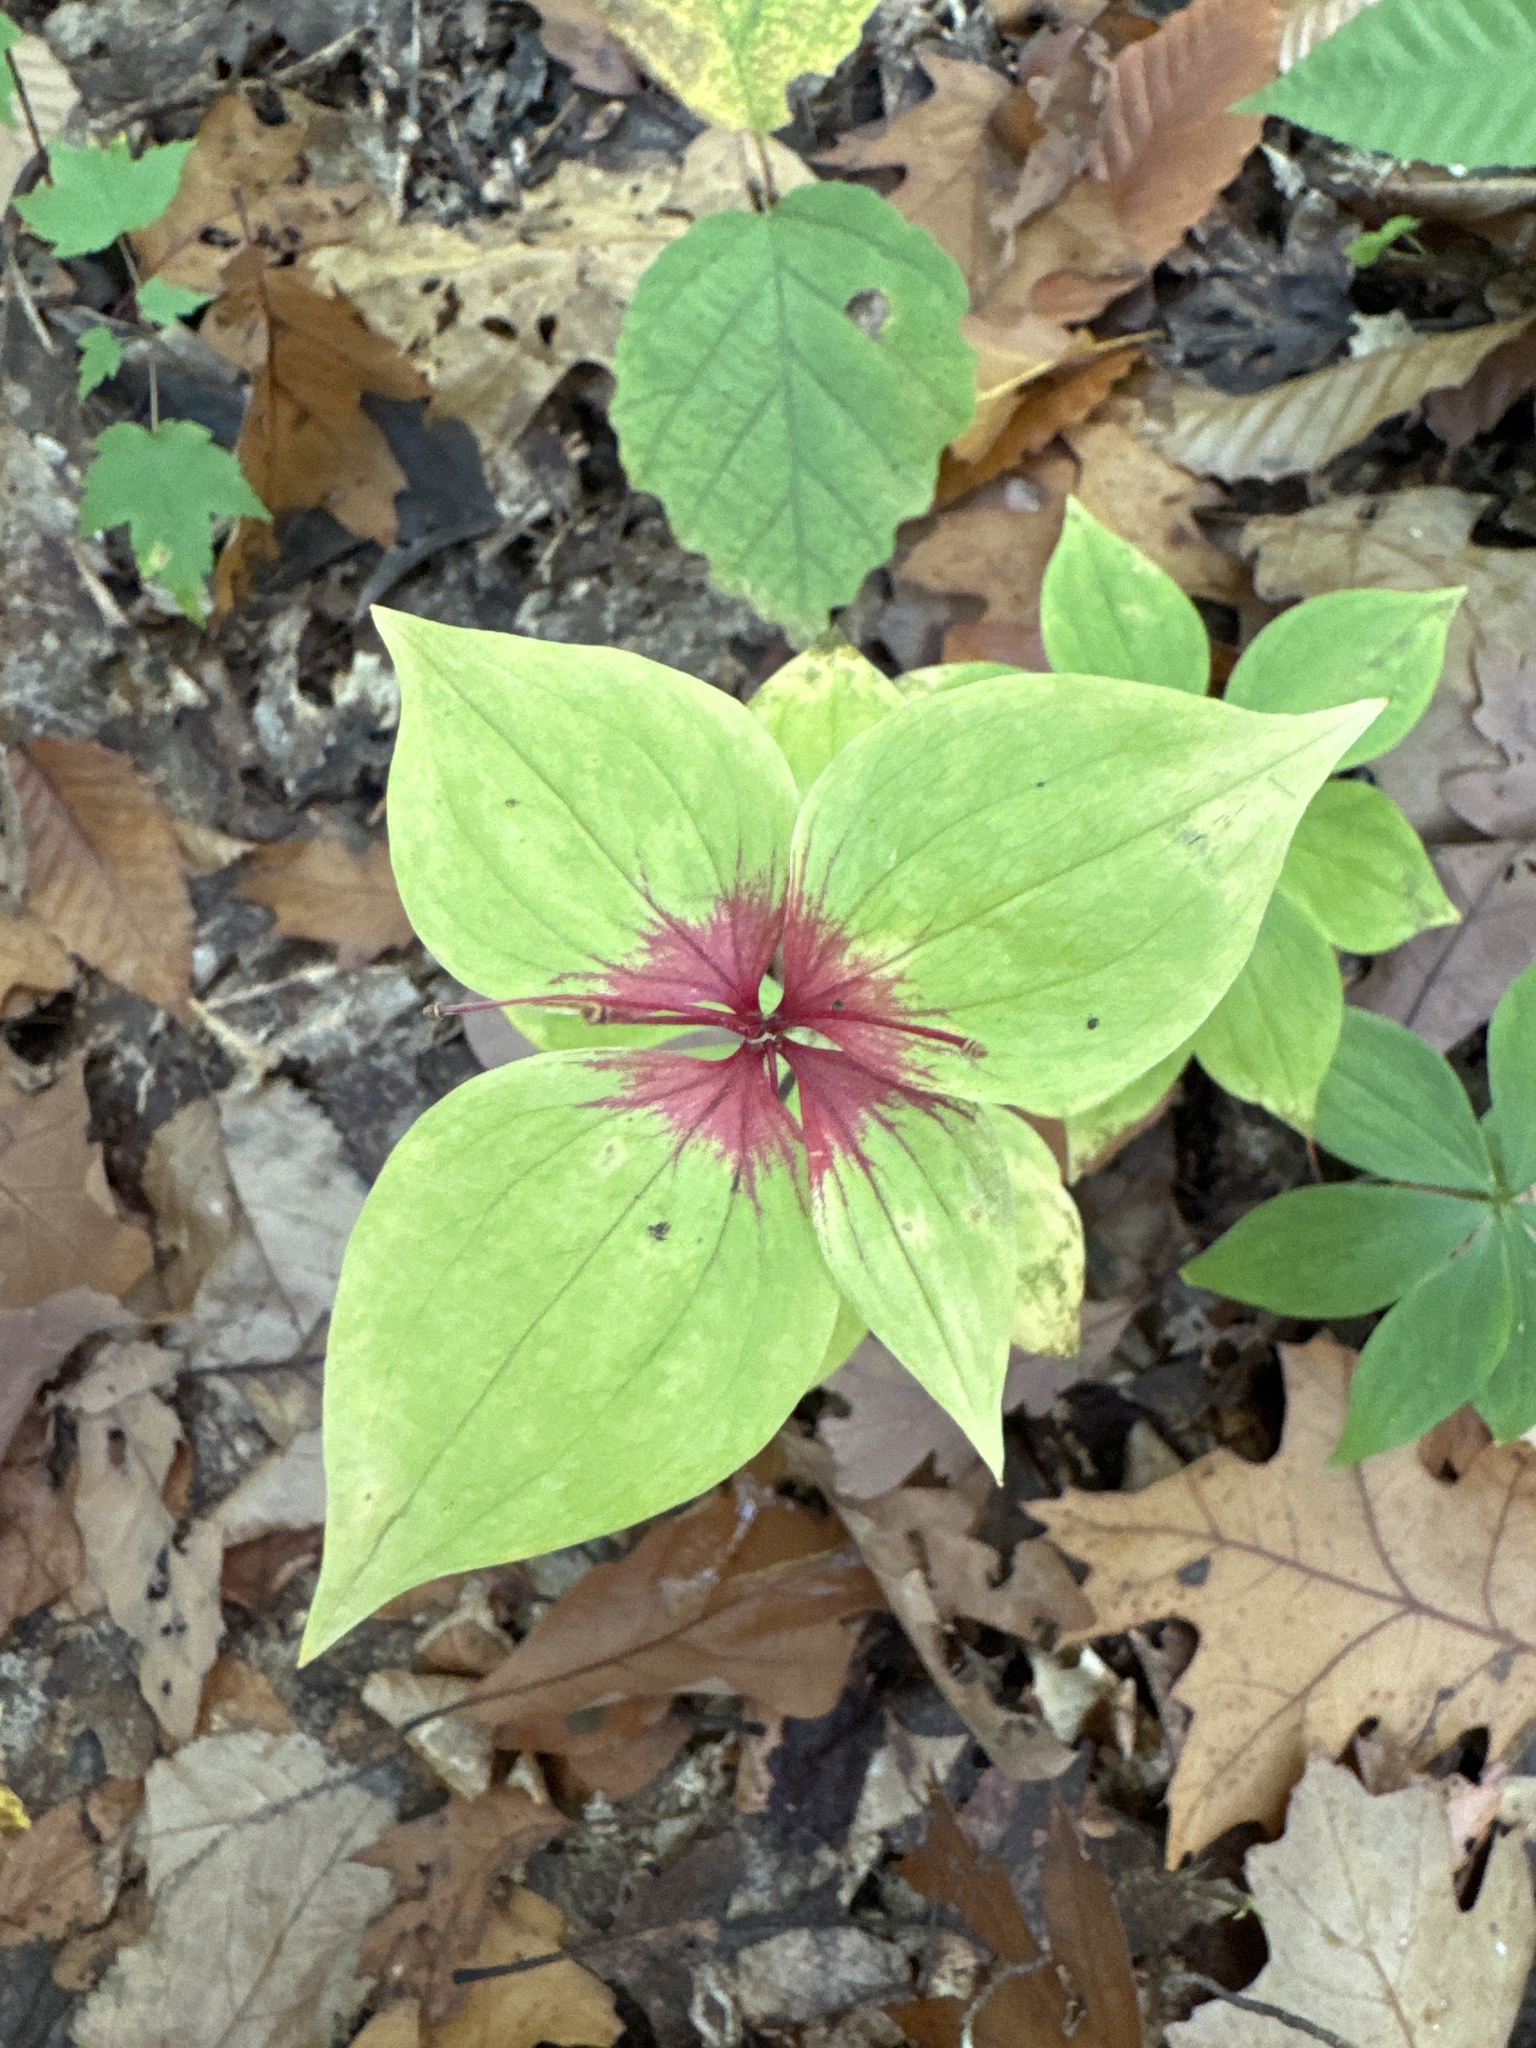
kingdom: Plantae
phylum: Tracheophyta
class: Liliopsida
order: Liliales
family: Liliaceae
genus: Medeola
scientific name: Medeola virginiana
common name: Indian cucumber-root
